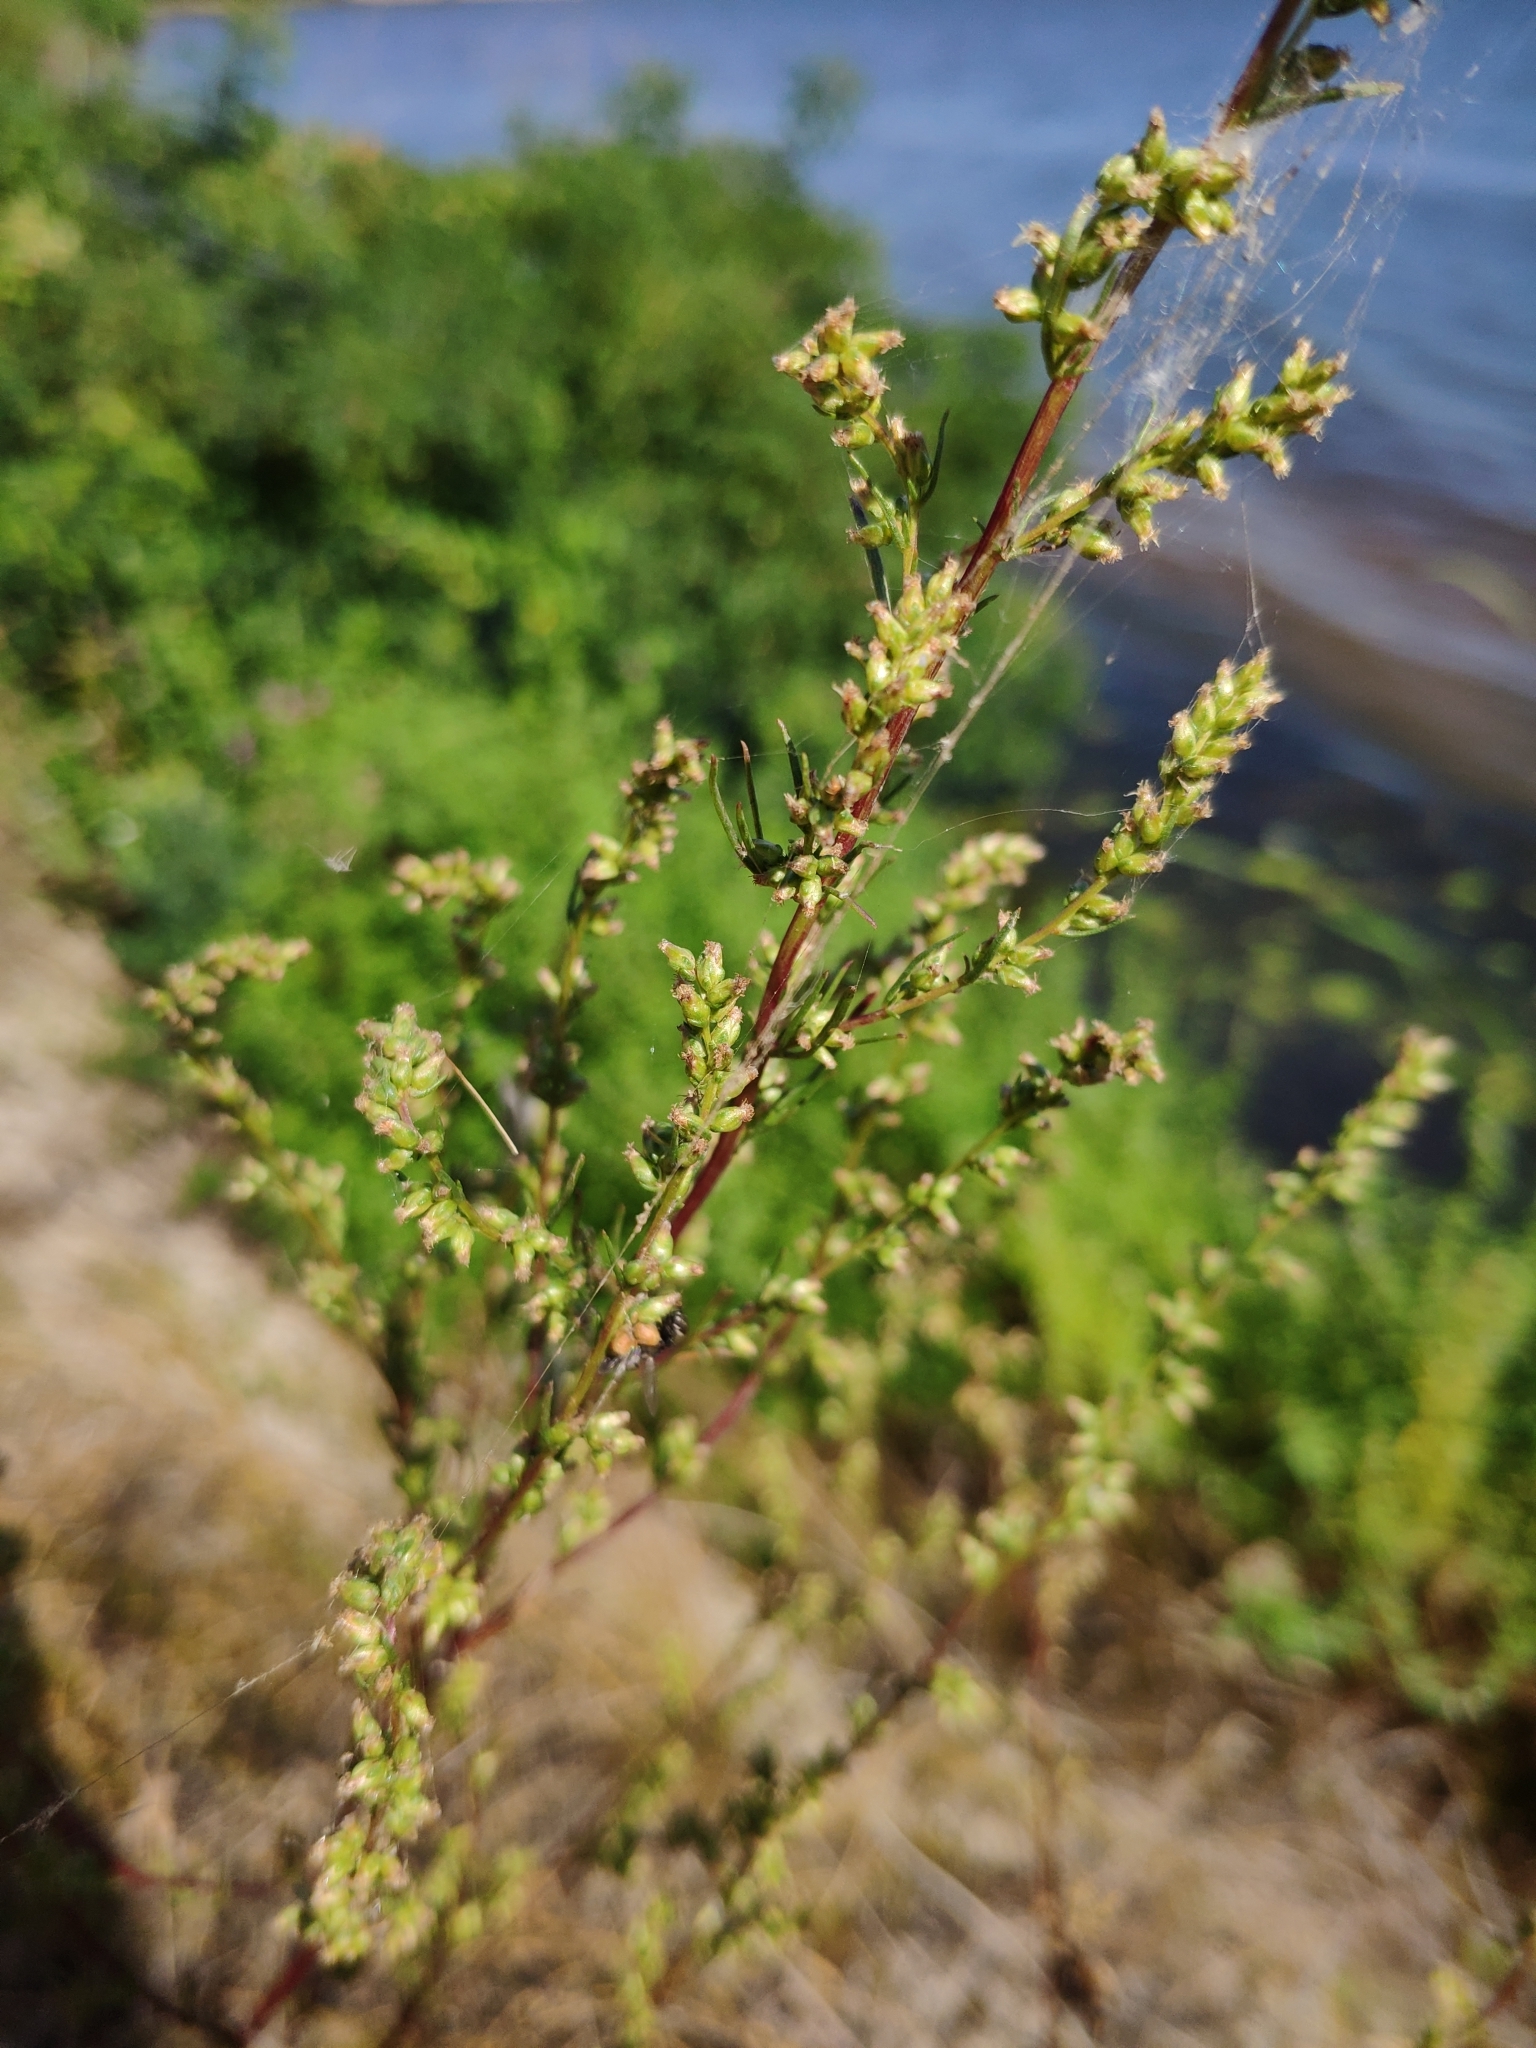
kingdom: Plantae
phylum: Tracheophyta
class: Magnoliopsida
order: Asterales
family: Asteraceae
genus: Artemisia
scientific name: Artemisia campestris
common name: Field wormwood
